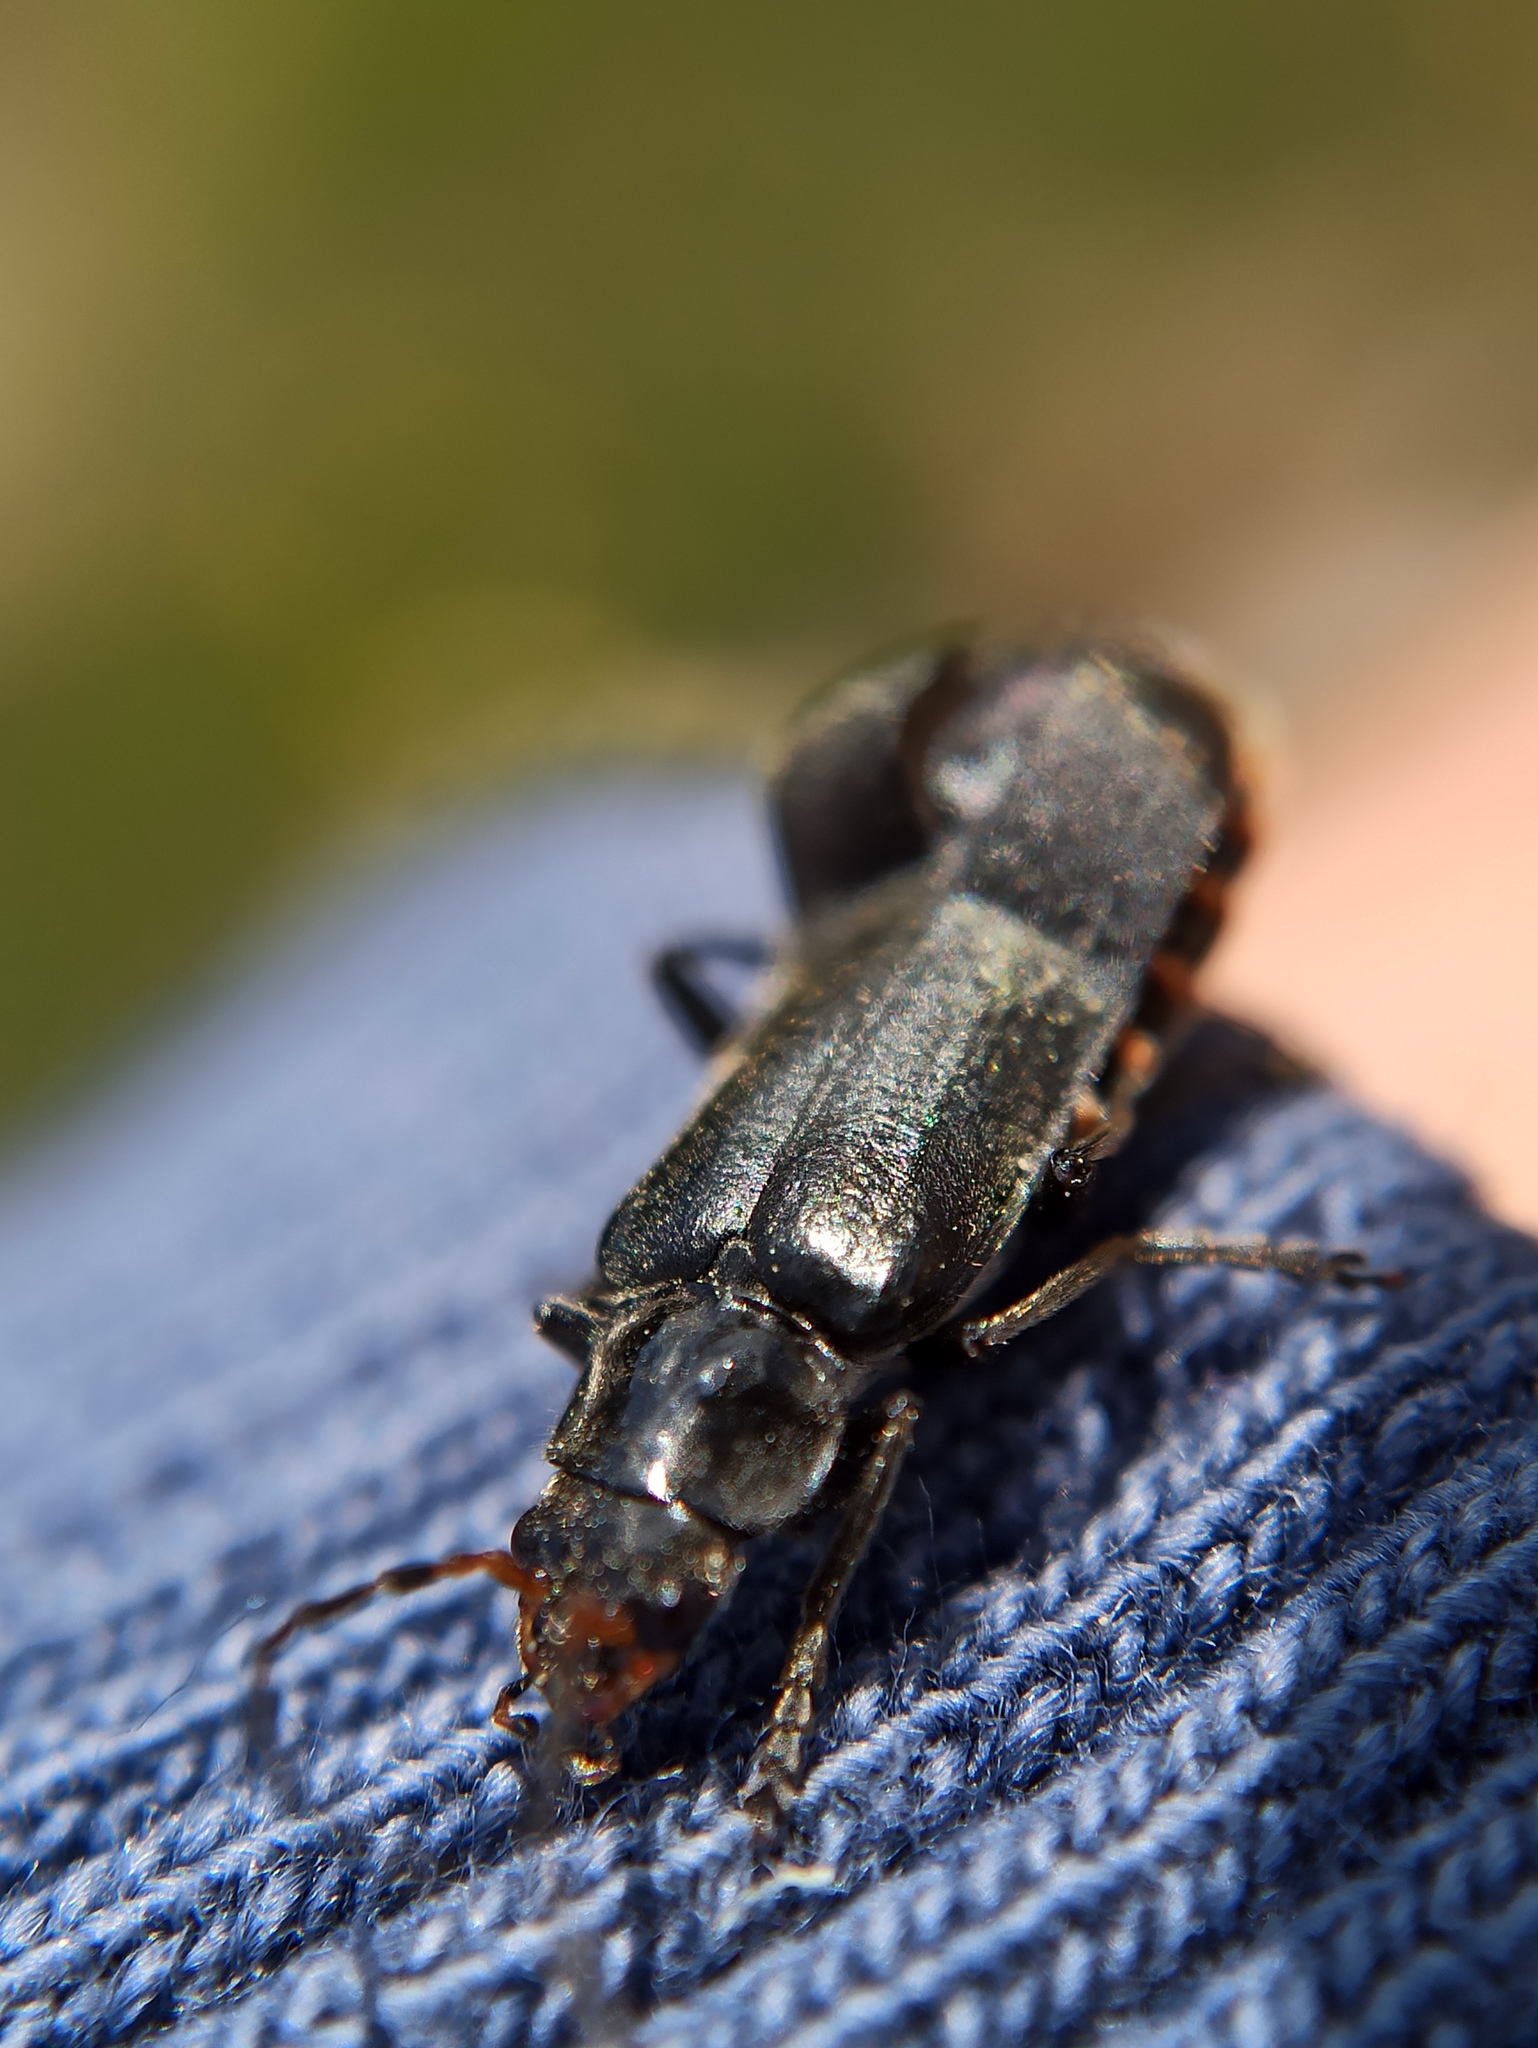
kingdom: Animalia
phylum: Arthropoda
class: Insecta
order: Coleoptera
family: Cantharidae
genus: Cantharis
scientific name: Cantharis tristis
